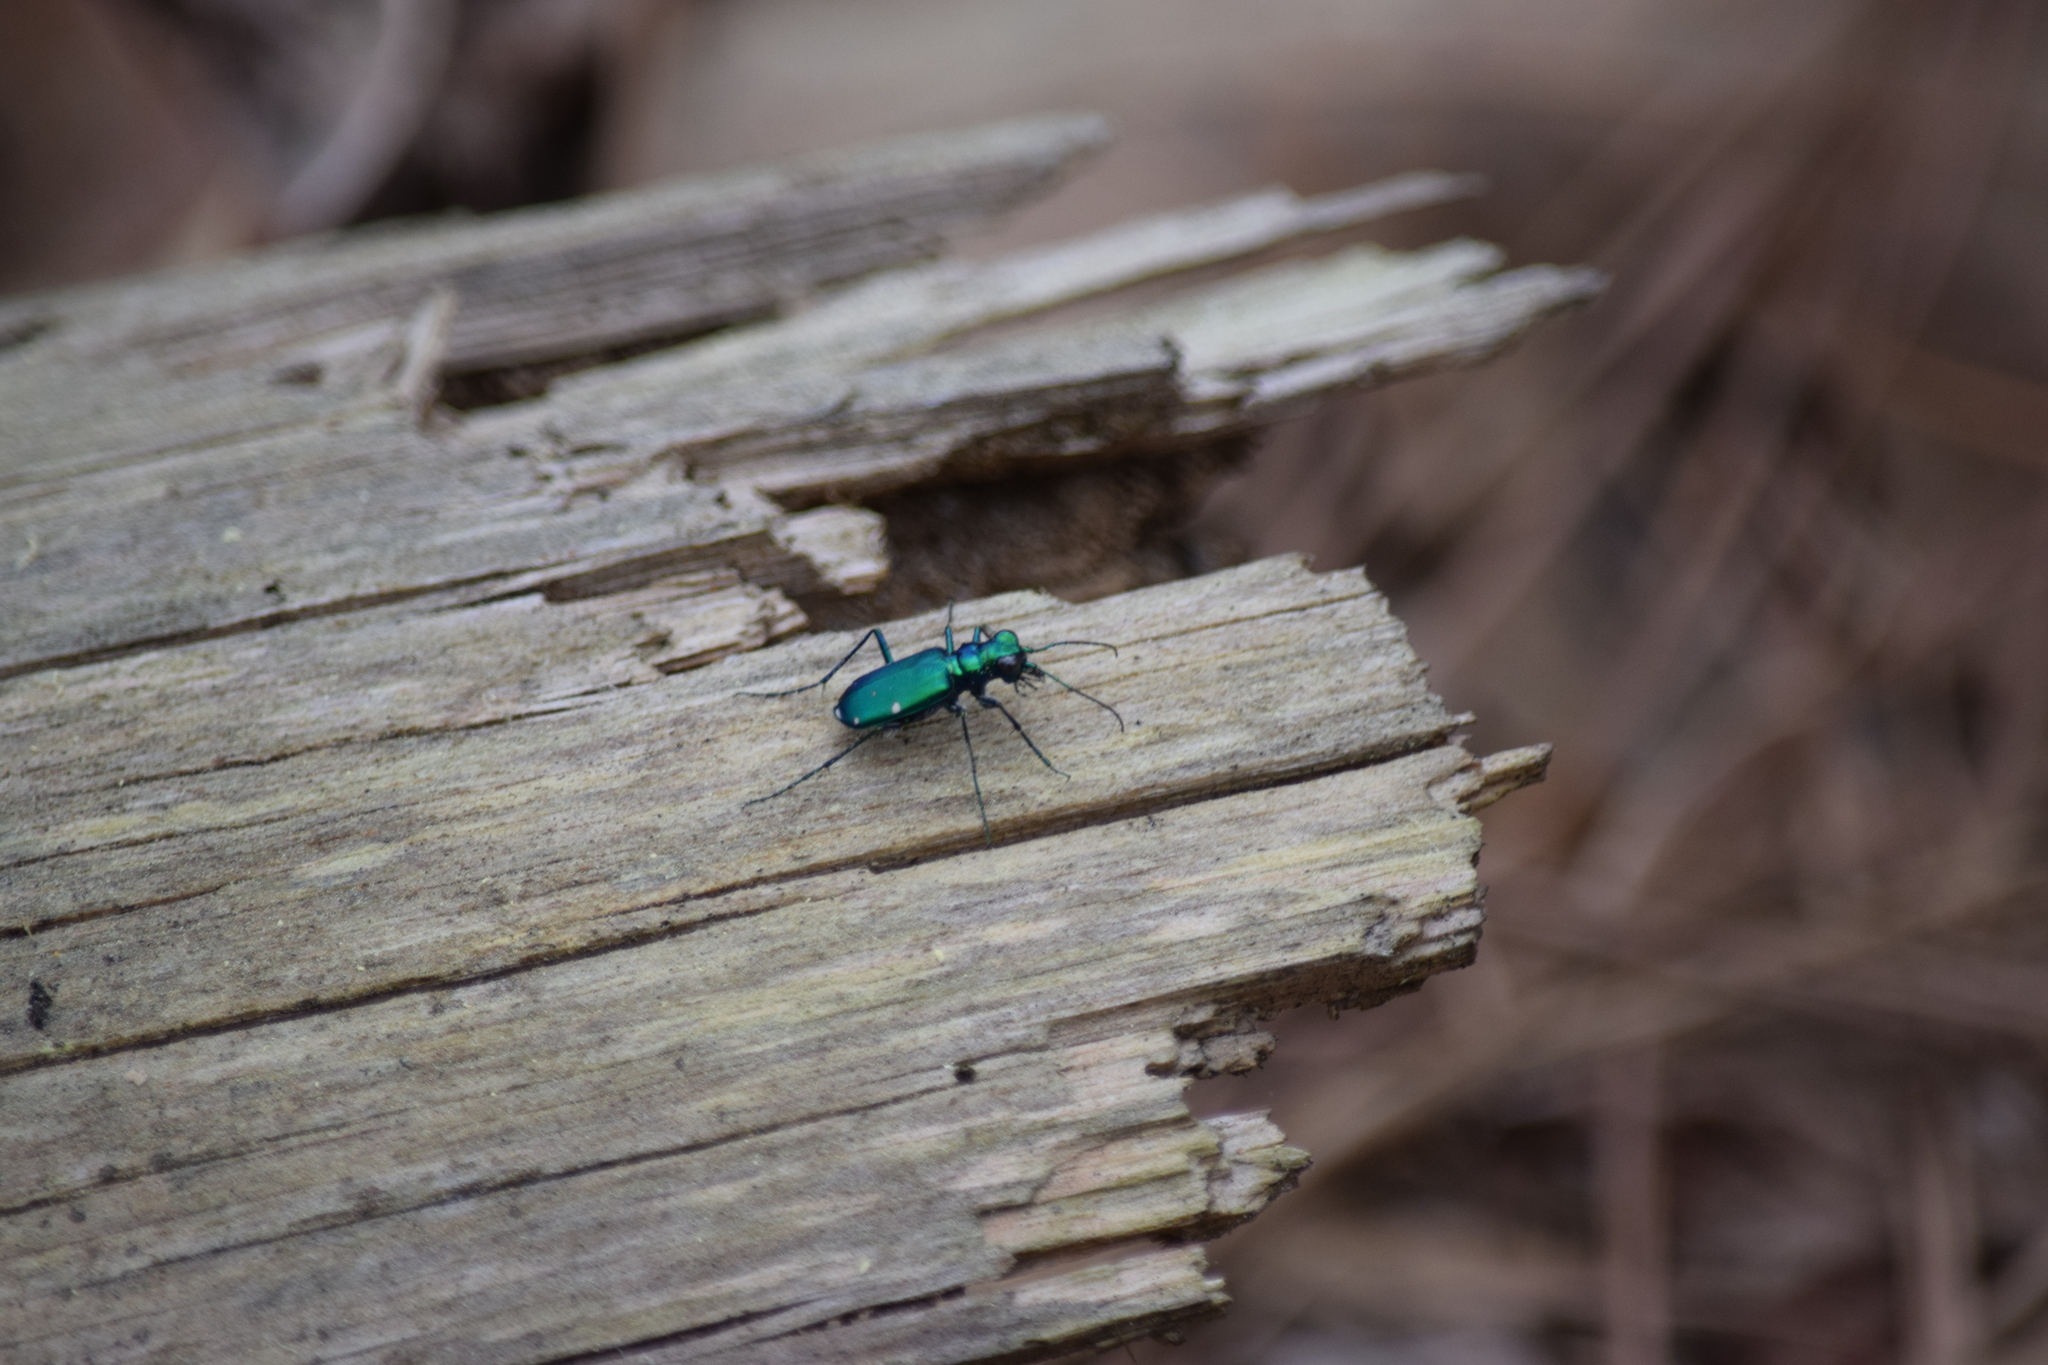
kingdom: Animalia
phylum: Arthropoda
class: Insecta
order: Coleoptera
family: Carabidae
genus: Cicindela
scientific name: Cicindela sexguttata
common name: Six-spotted tiger beetle
